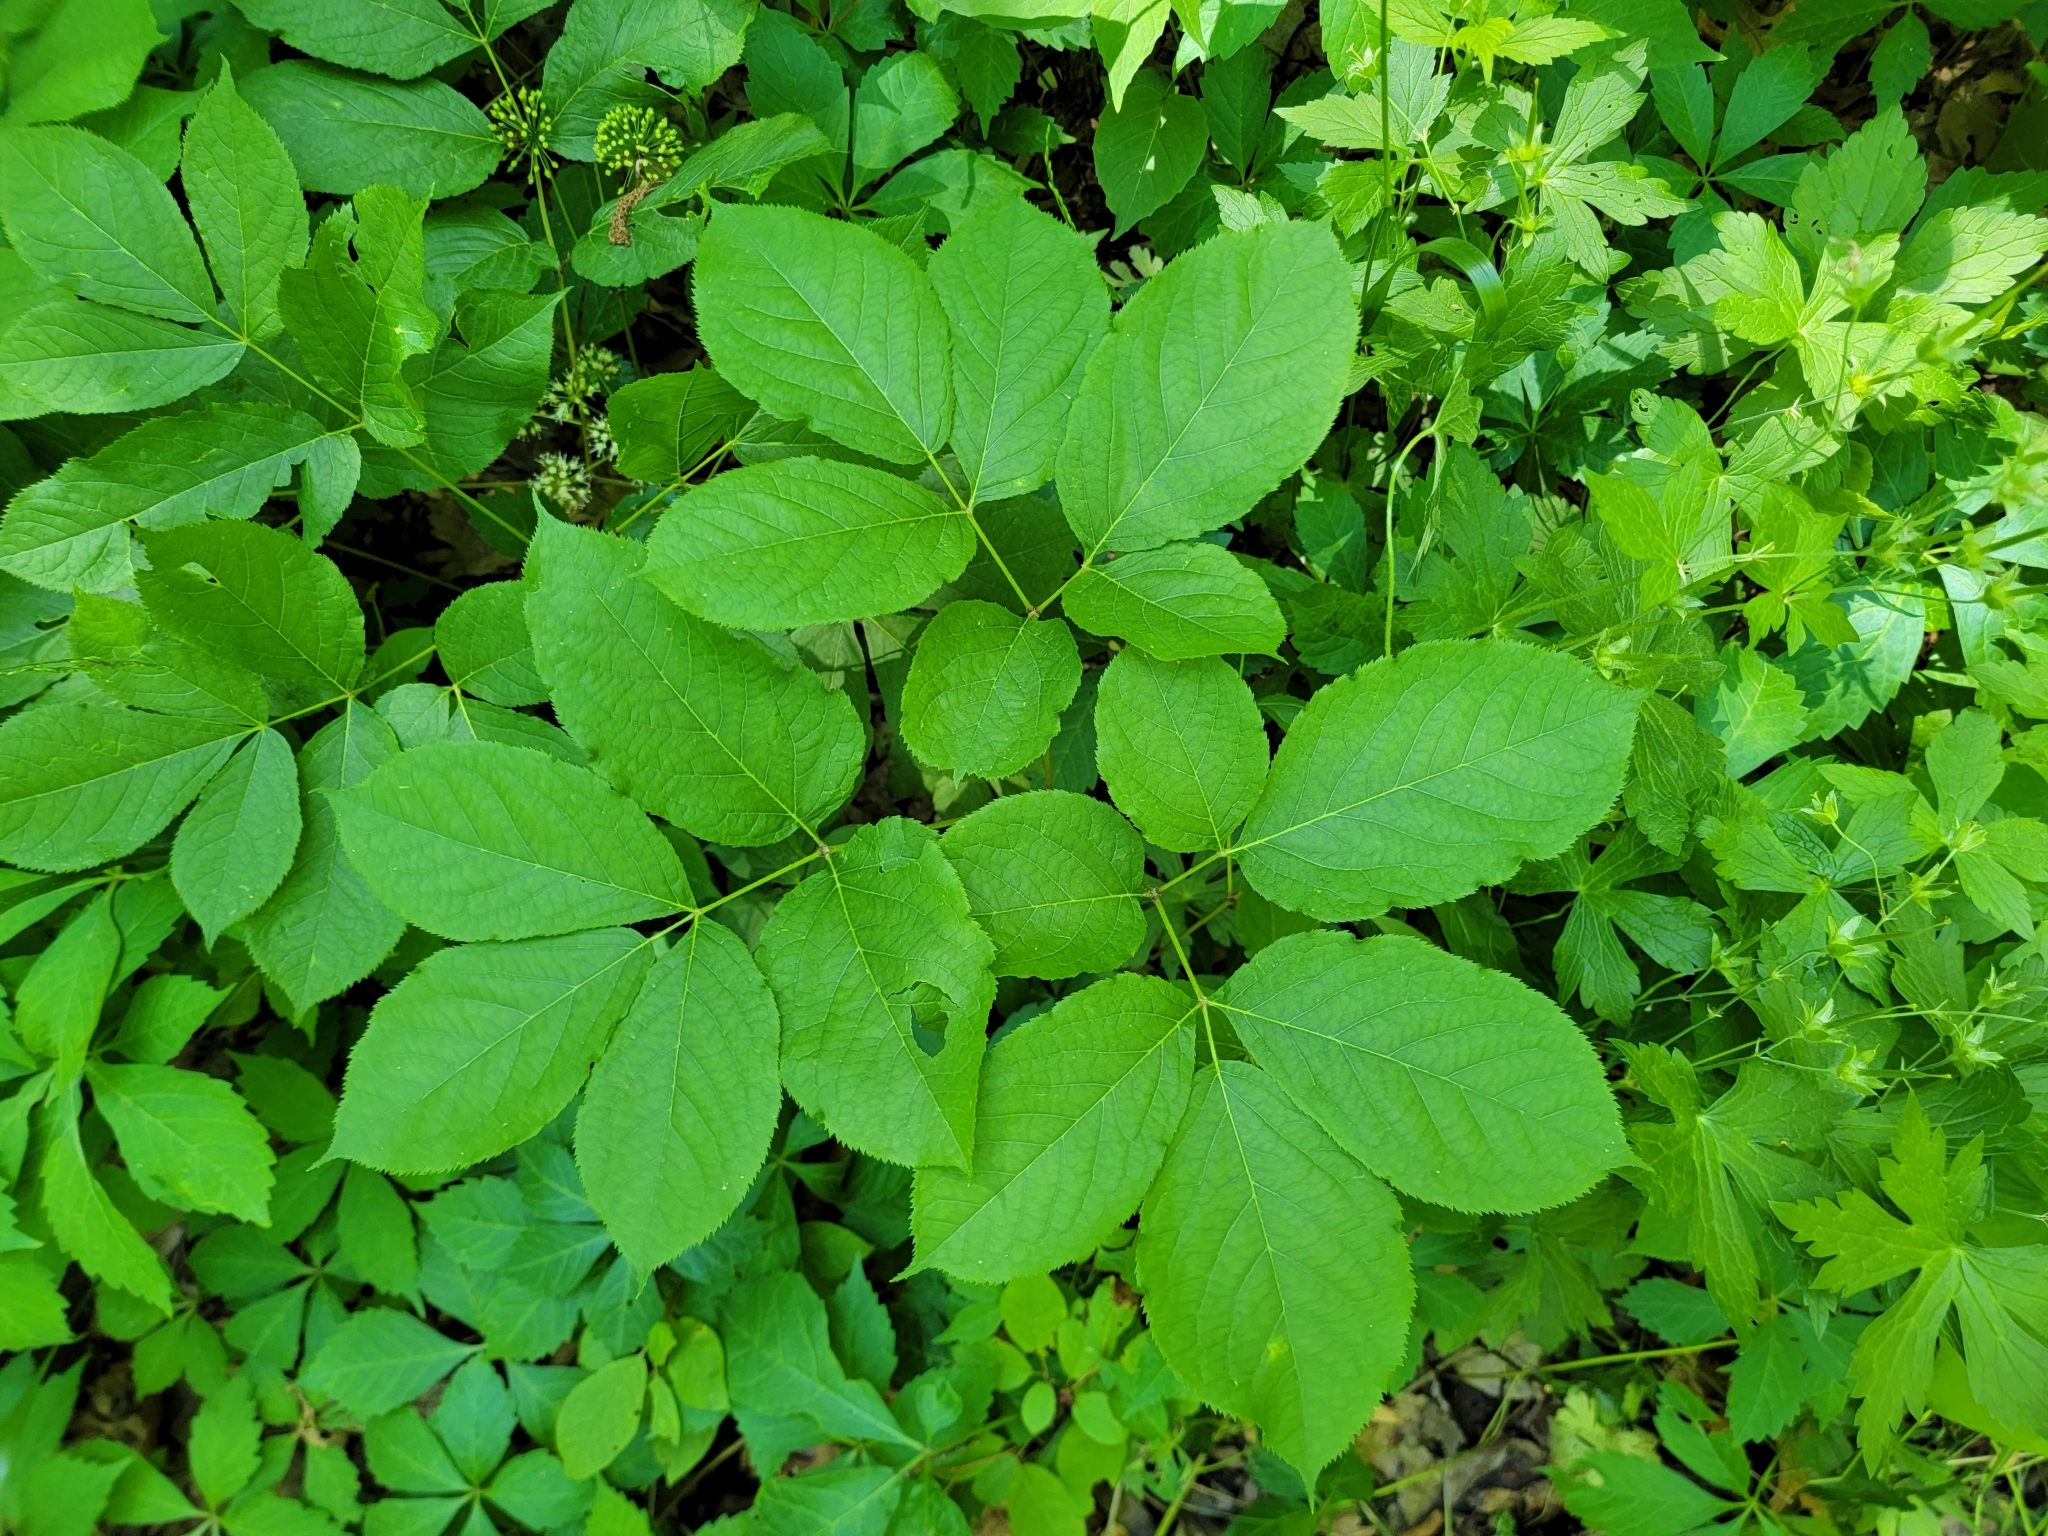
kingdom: Plantae
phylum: Tracheophyta
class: Magnoliopsida
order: Apiales
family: Araliaceae
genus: Aralia
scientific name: Aralia nudicaulis
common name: Wild sarsaparilla
